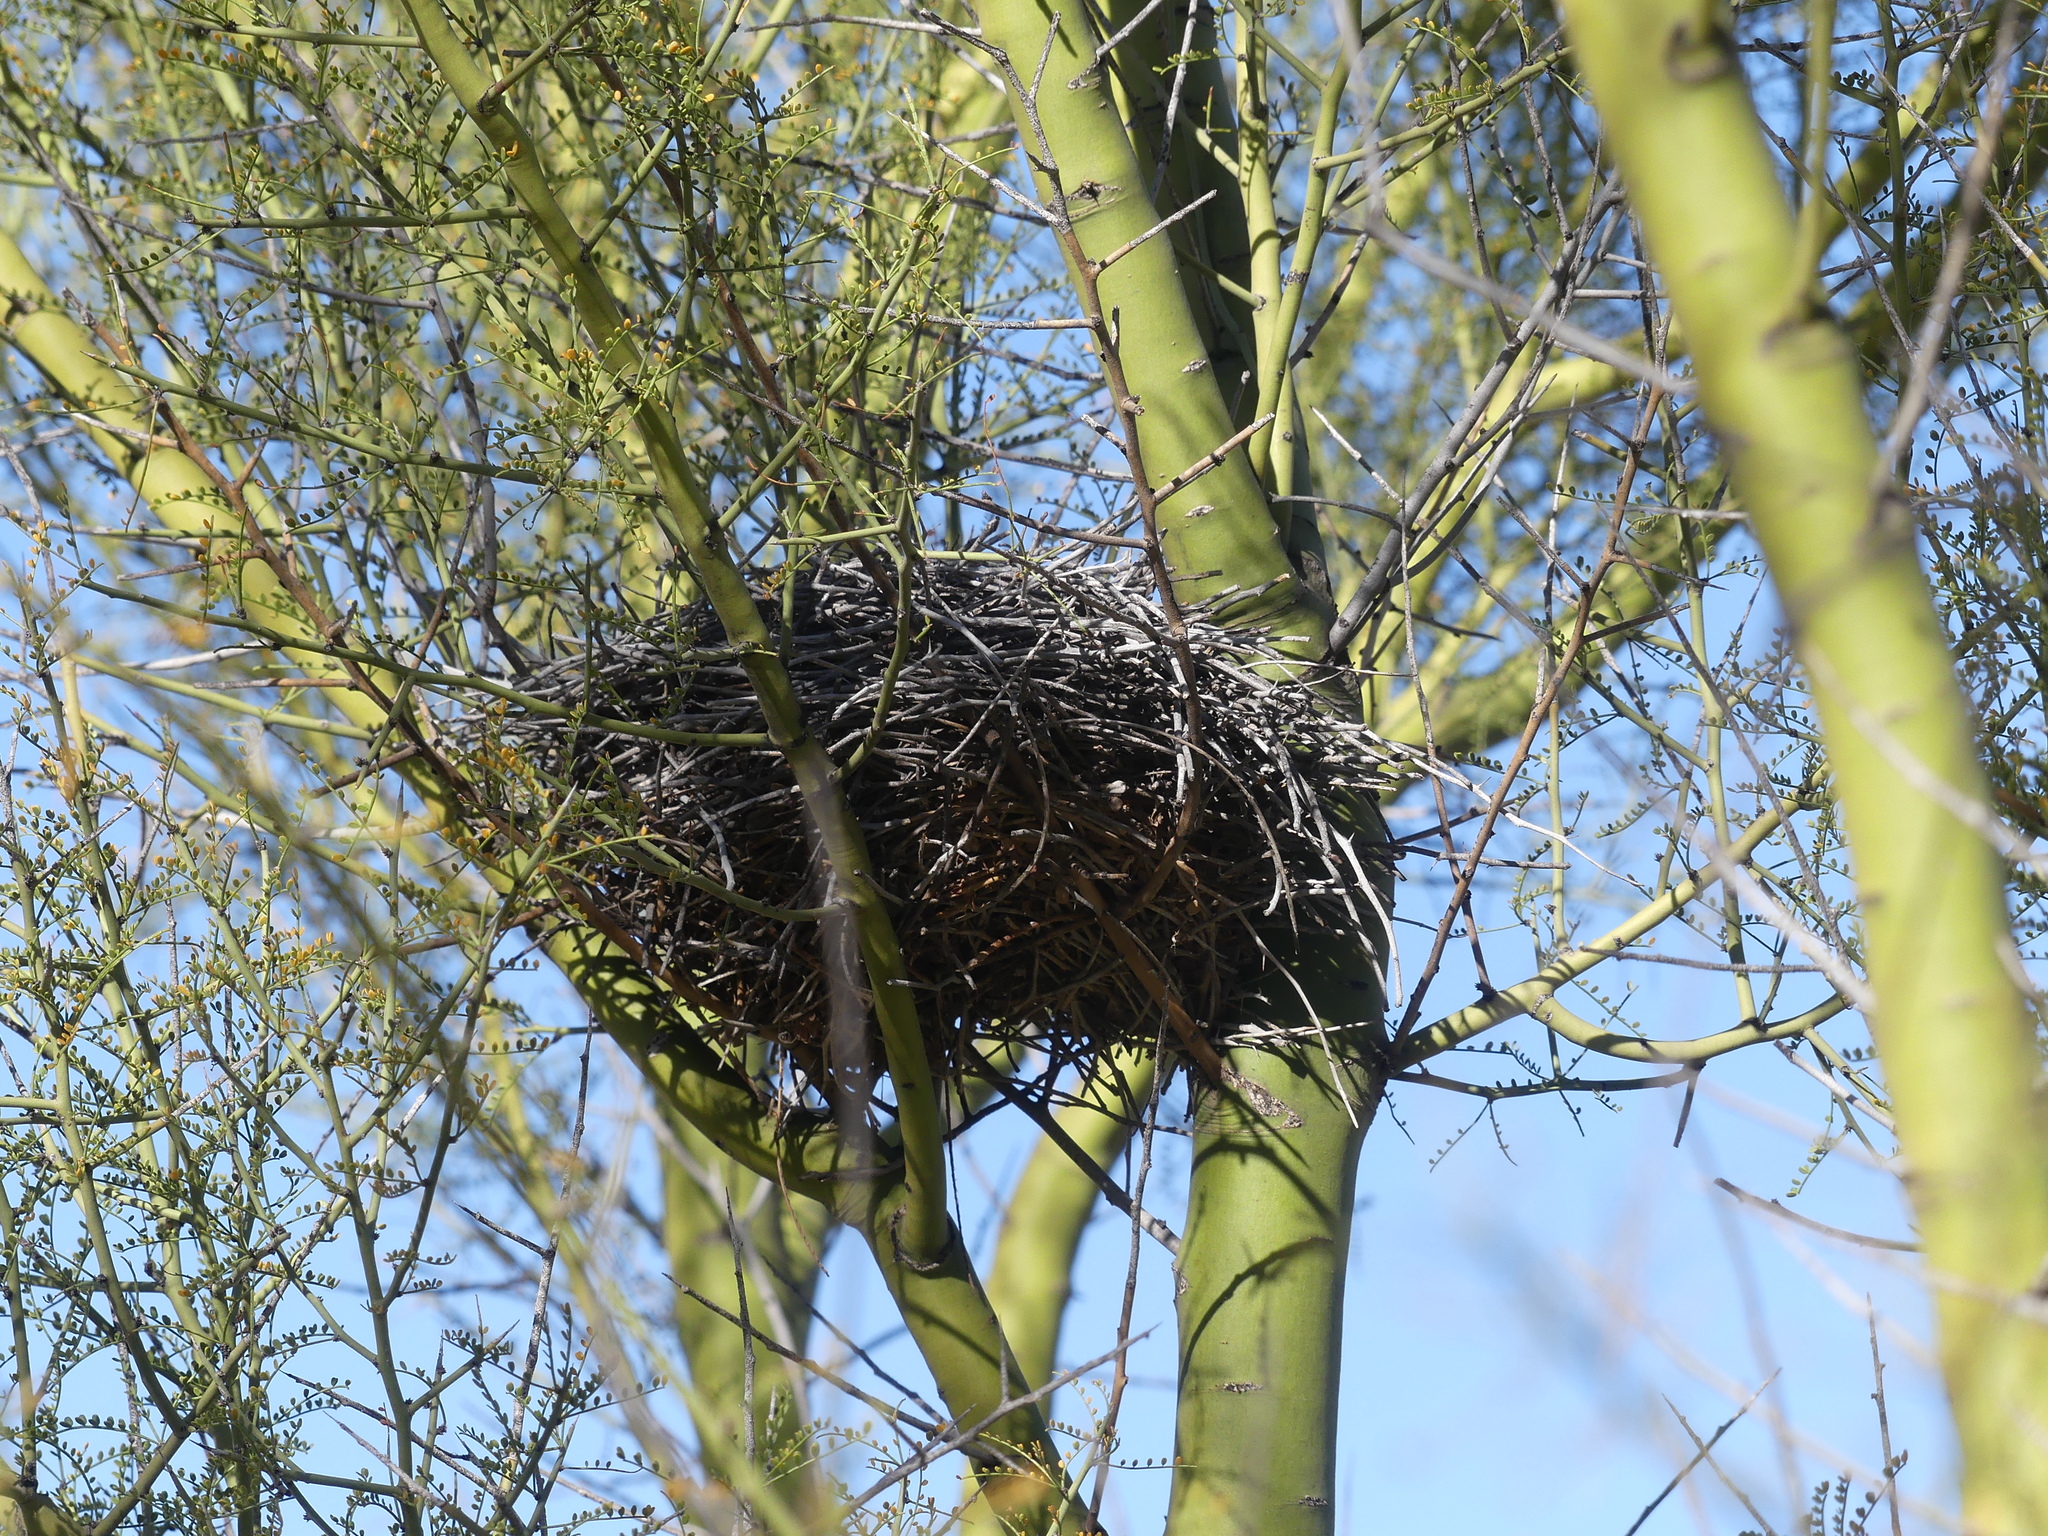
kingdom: Animalia
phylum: Chordata
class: Aves
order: Passeriformes
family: Remizidae
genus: Auriparus
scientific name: Auriparus flaviceps
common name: Verdin
